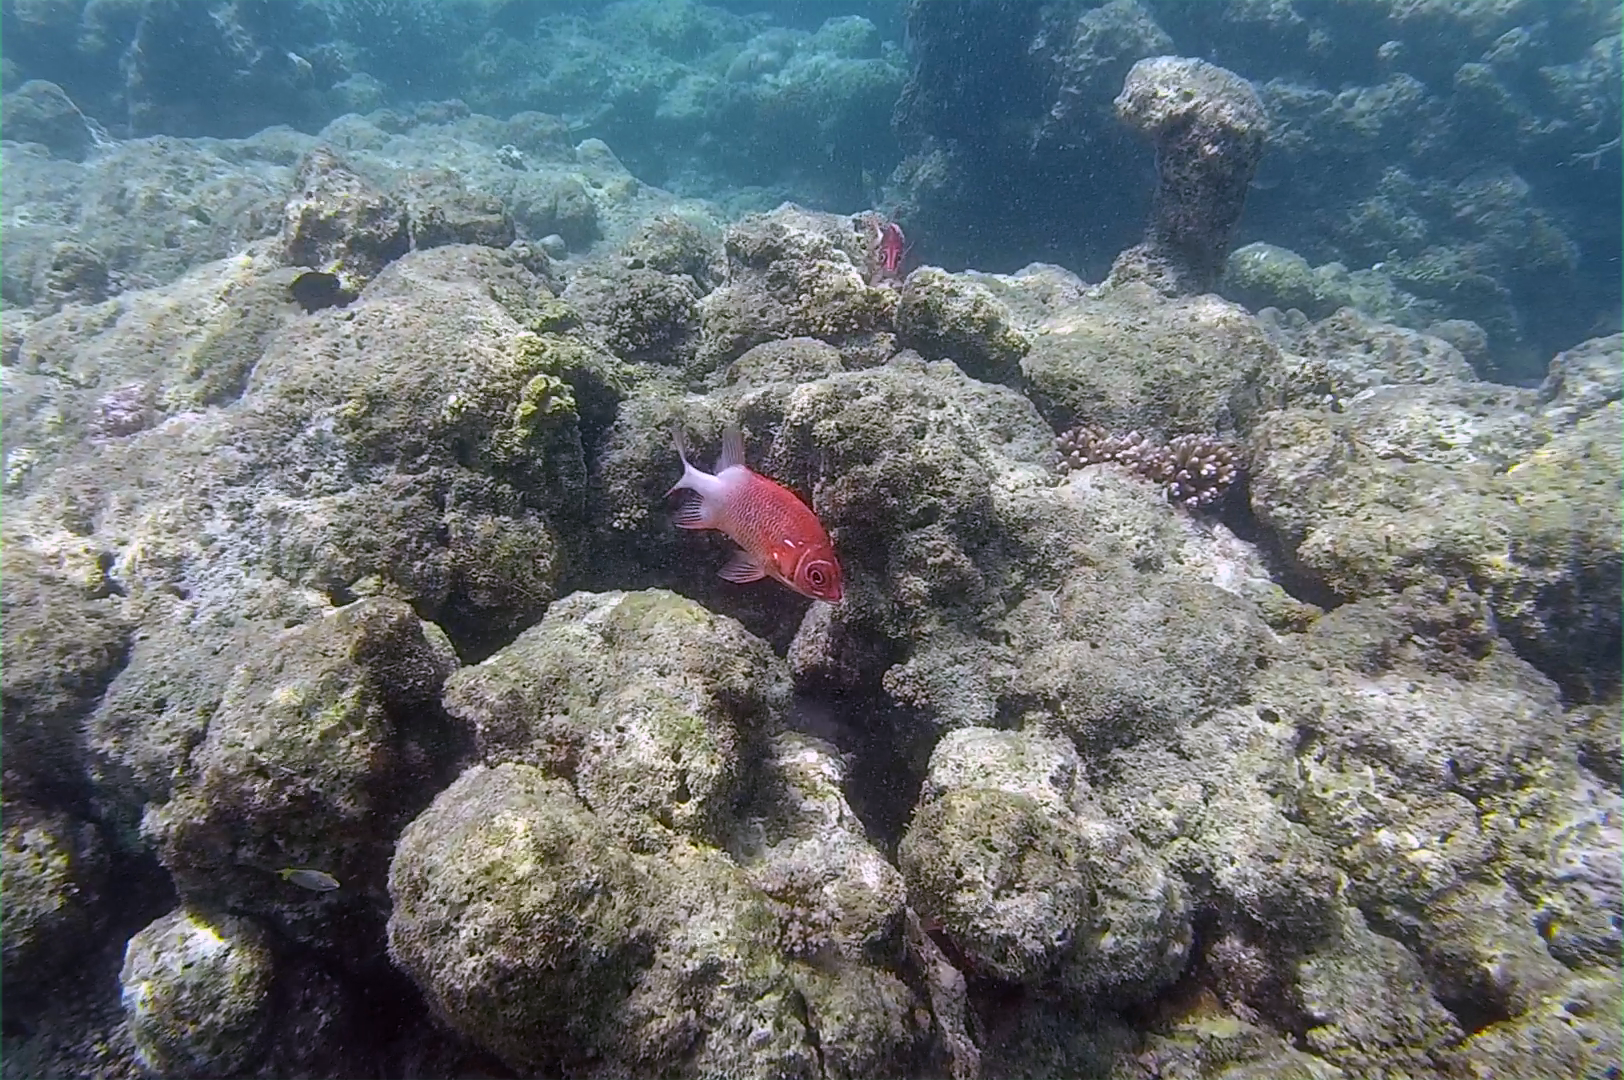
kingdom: Animalia
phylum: Chordata
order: Beryciformes
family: Holocentridae
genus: Sargocentron
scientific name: Sargocentron caudimaculatum
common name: Fanfin soldier
